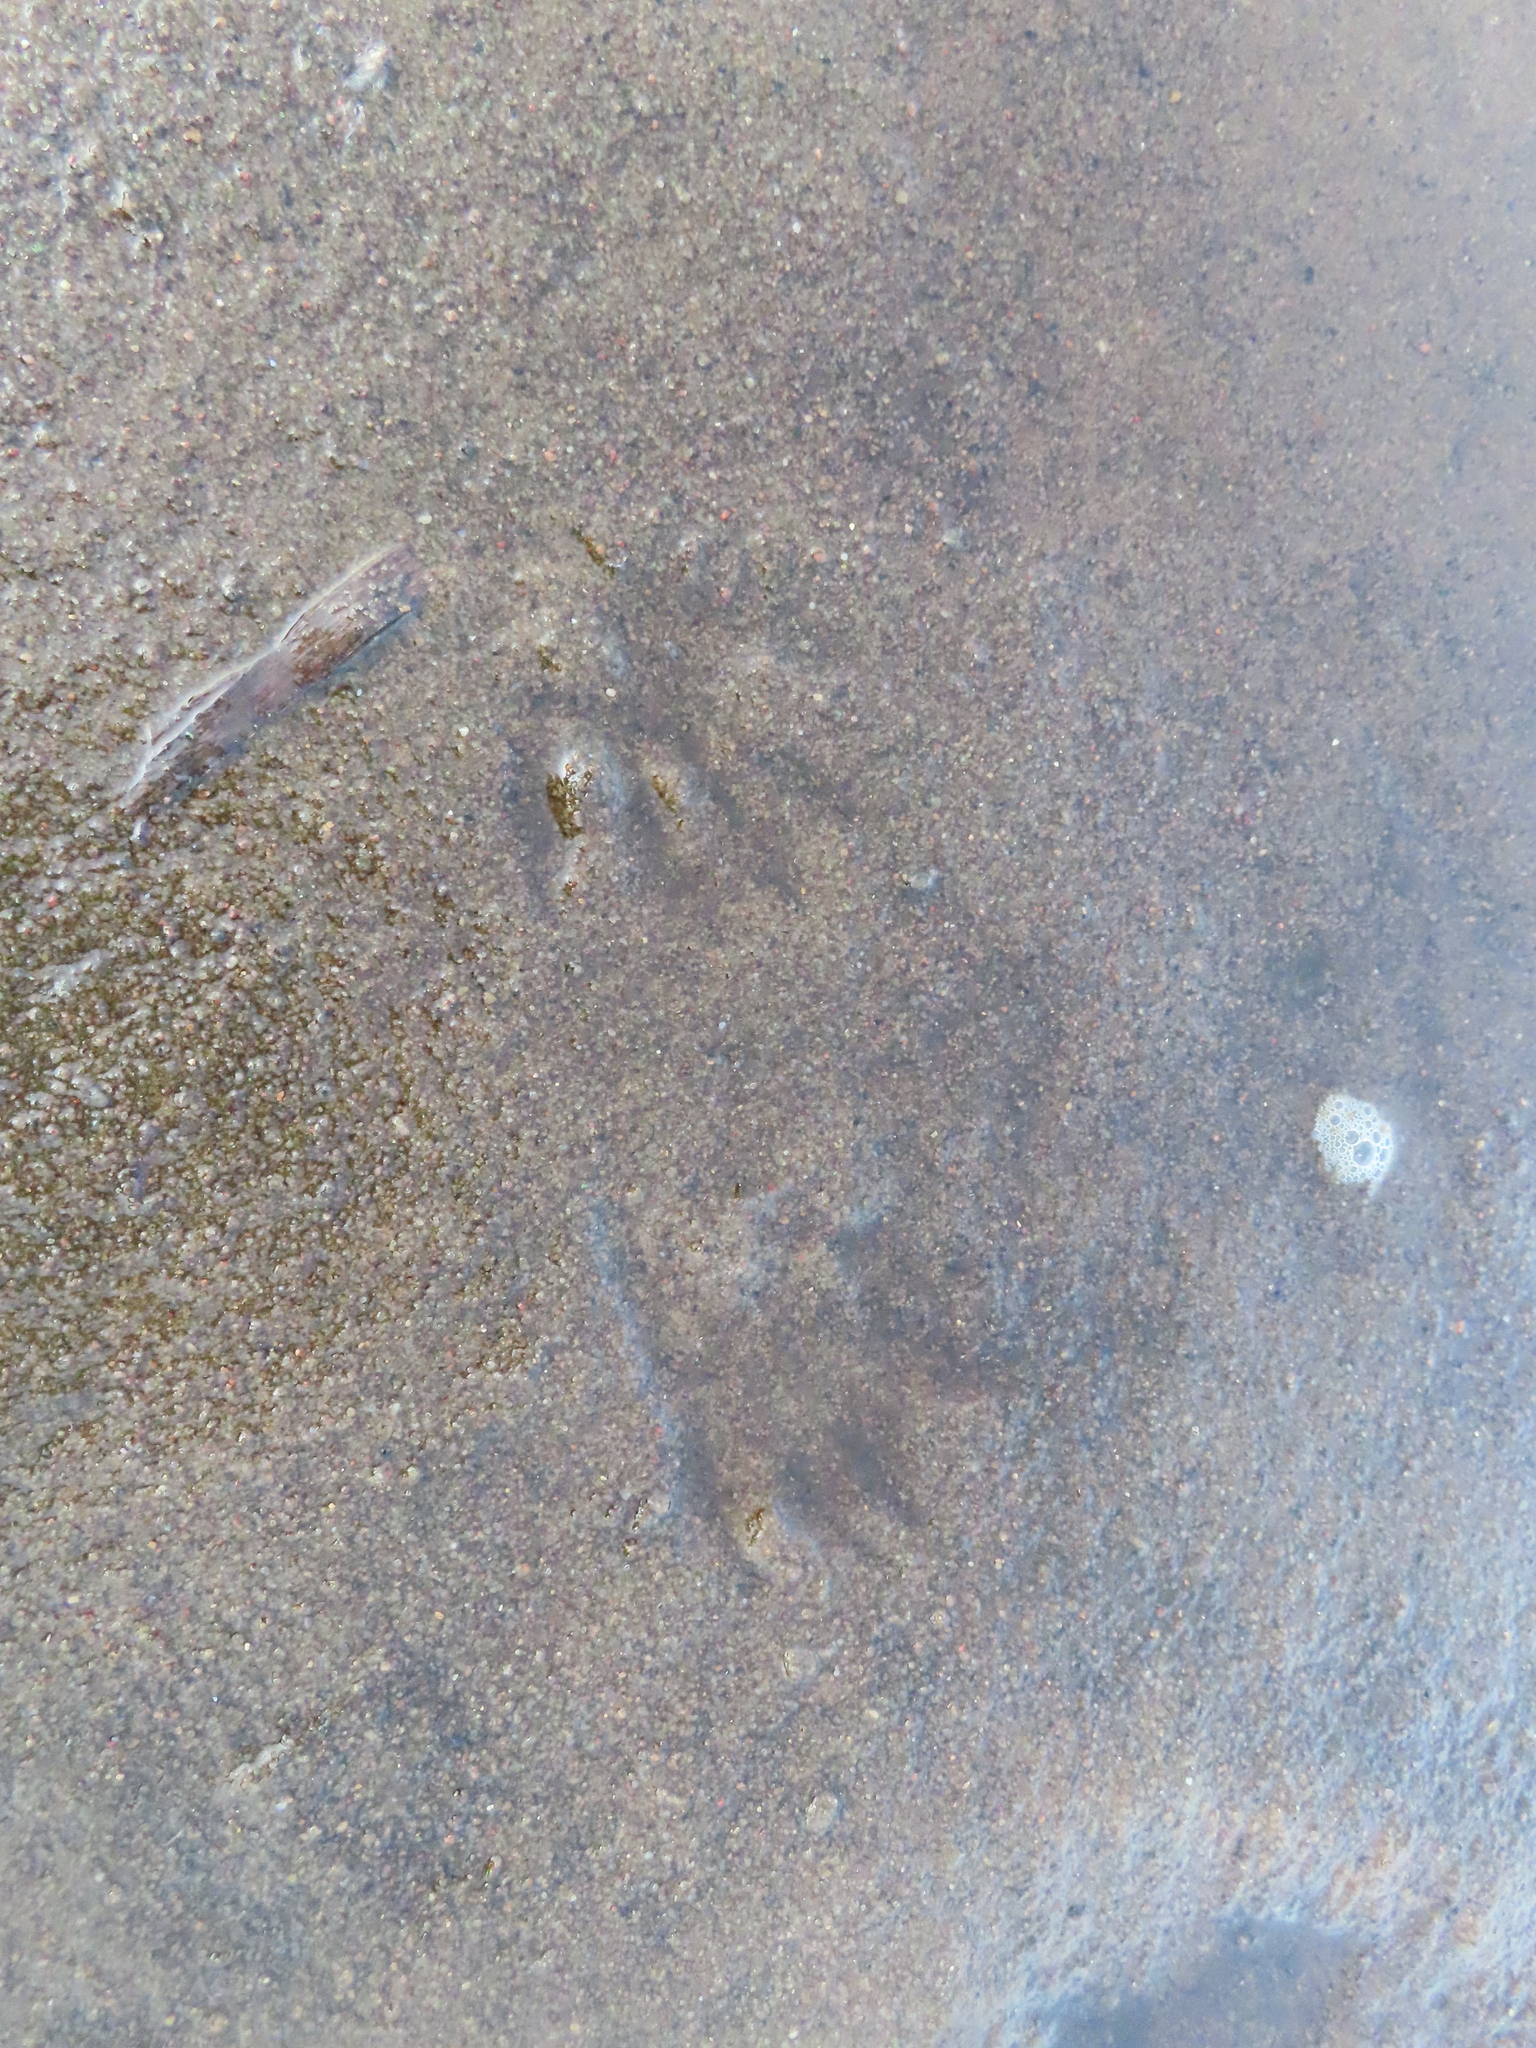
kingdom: Animalia
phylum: Chordata
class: Mammalia
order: Carnivora
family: Procyonidae
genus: Procyon
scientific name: Procyon lotor
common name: Raccoon
